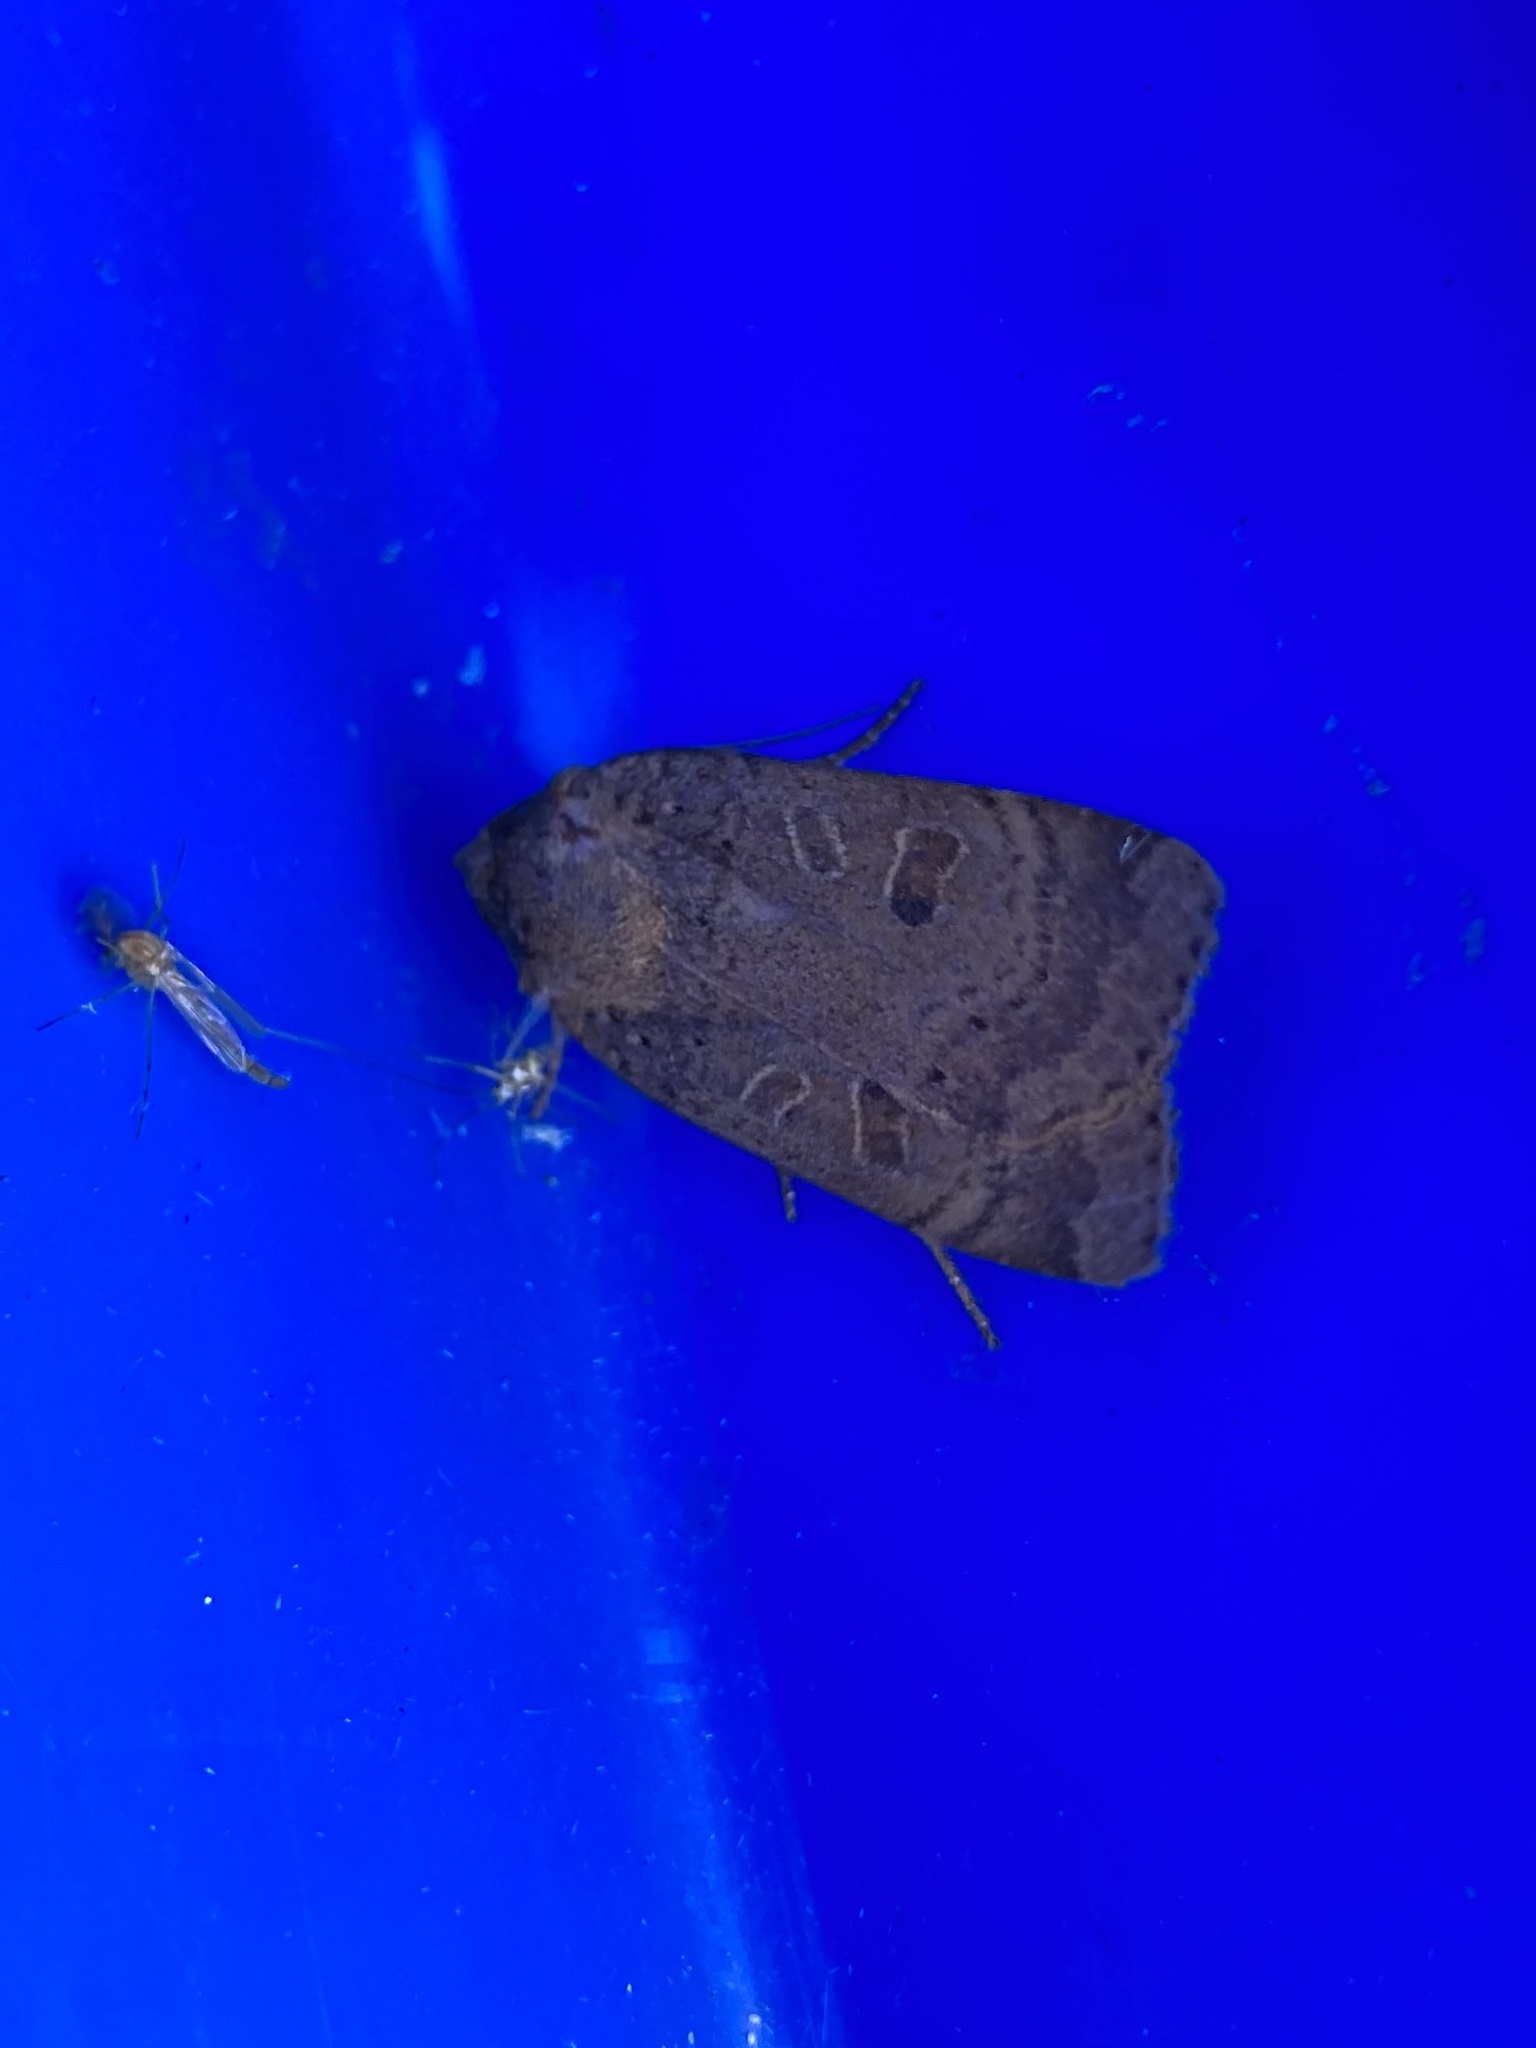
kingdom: Animalia
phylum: Arthropoda
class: Insecta
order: Lepidoptera
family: Noctuidae
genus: Noctua
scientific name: Noctua comes
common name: Lesser yellow underwing
